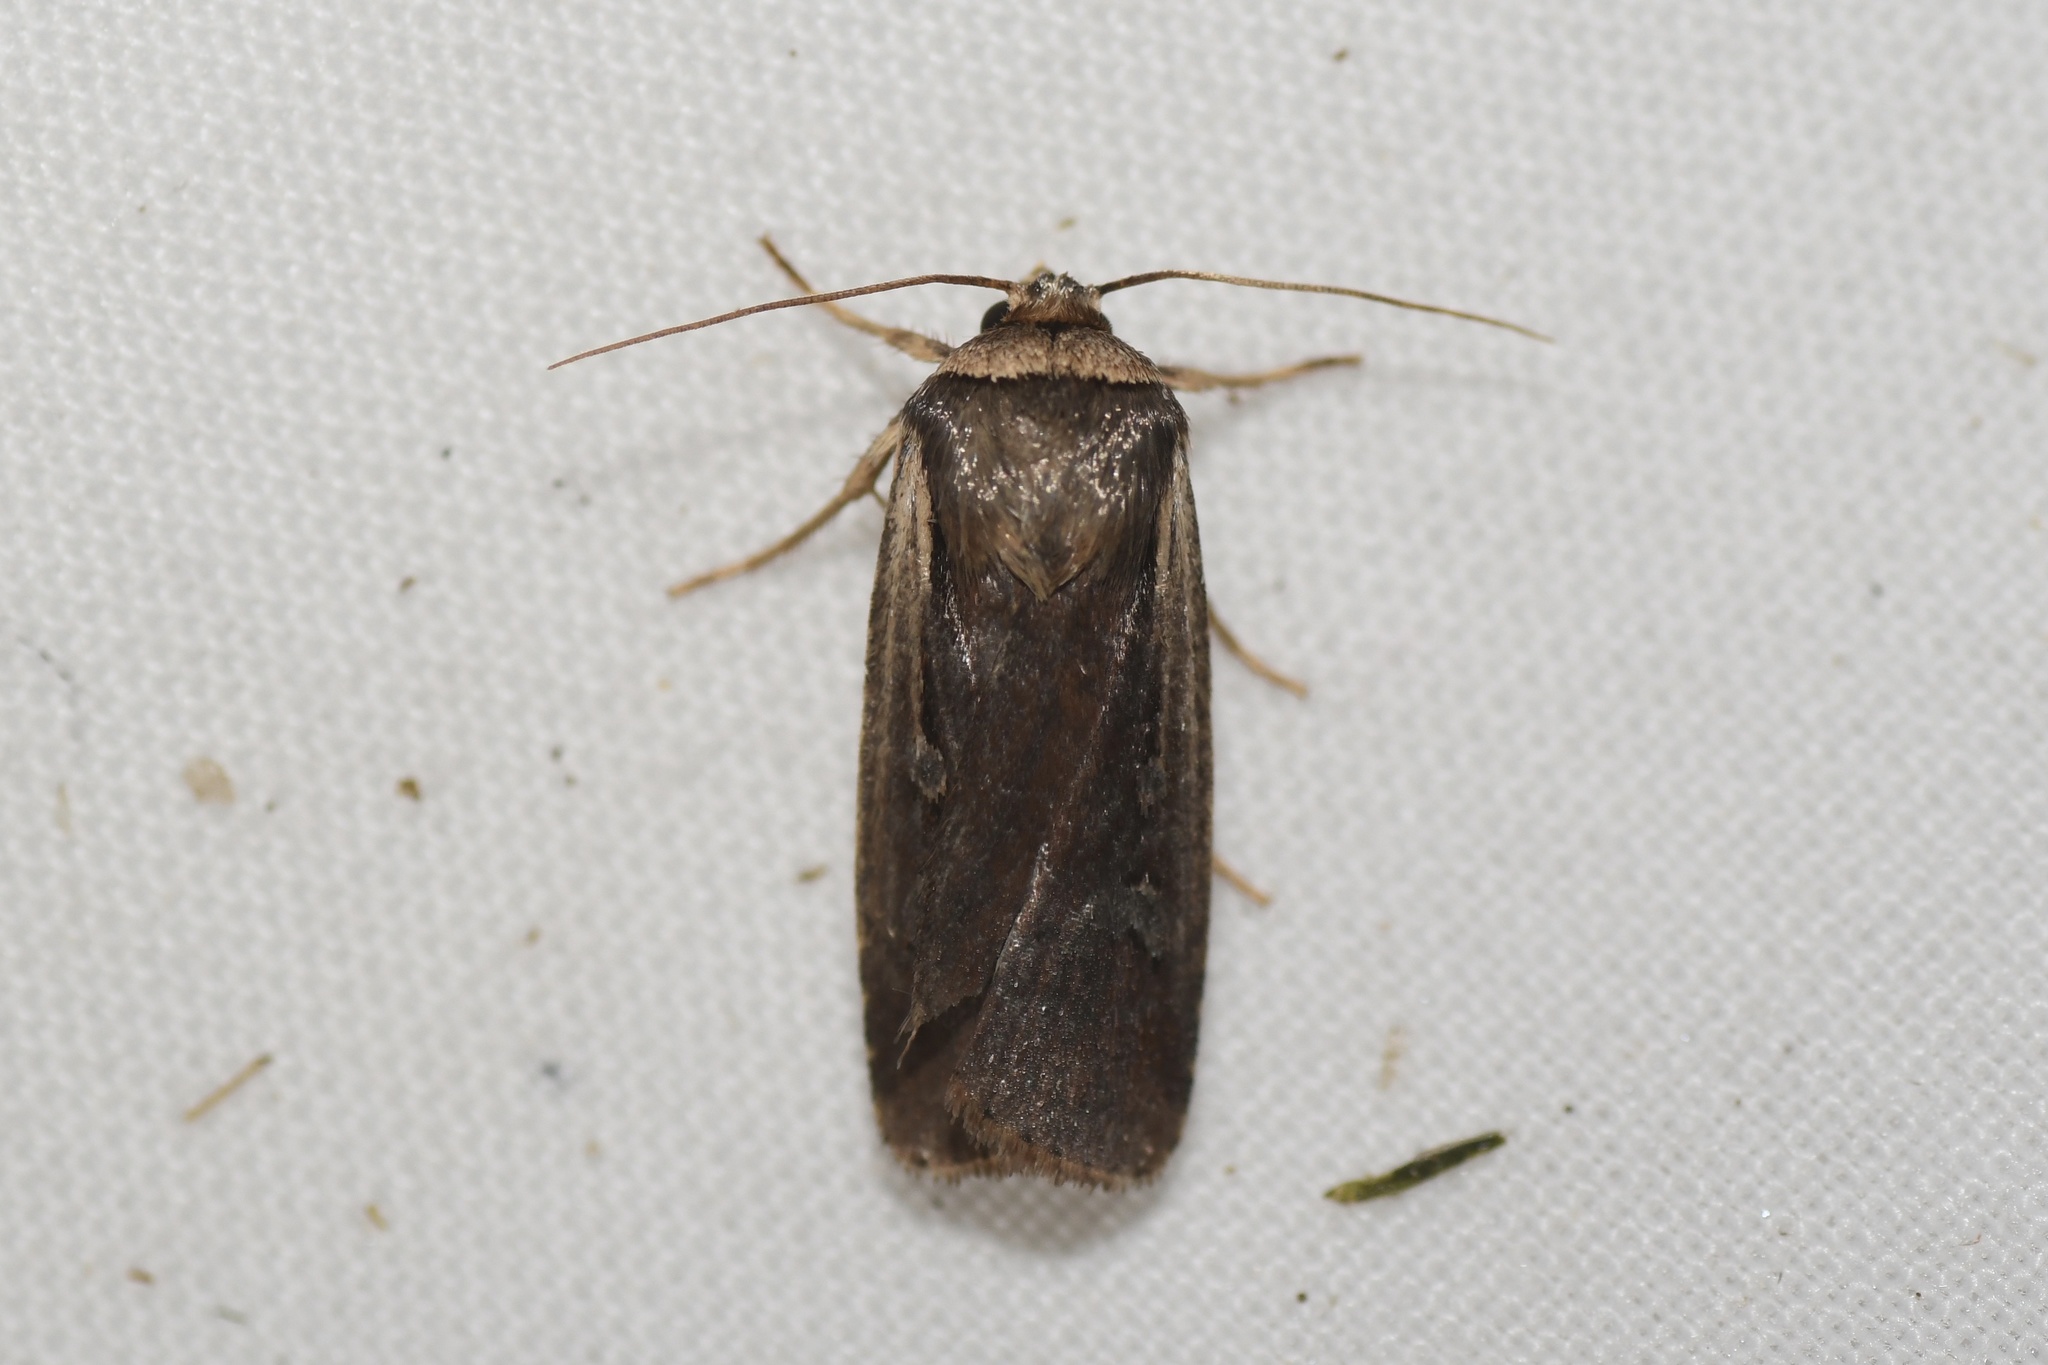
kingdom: Animalia
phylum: Arthropoda
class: Insecta
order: Lepidoptera
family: Noctuidae
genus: Ochropleura
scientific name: Ochropleura implecta
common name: Flame-shouldered dart
